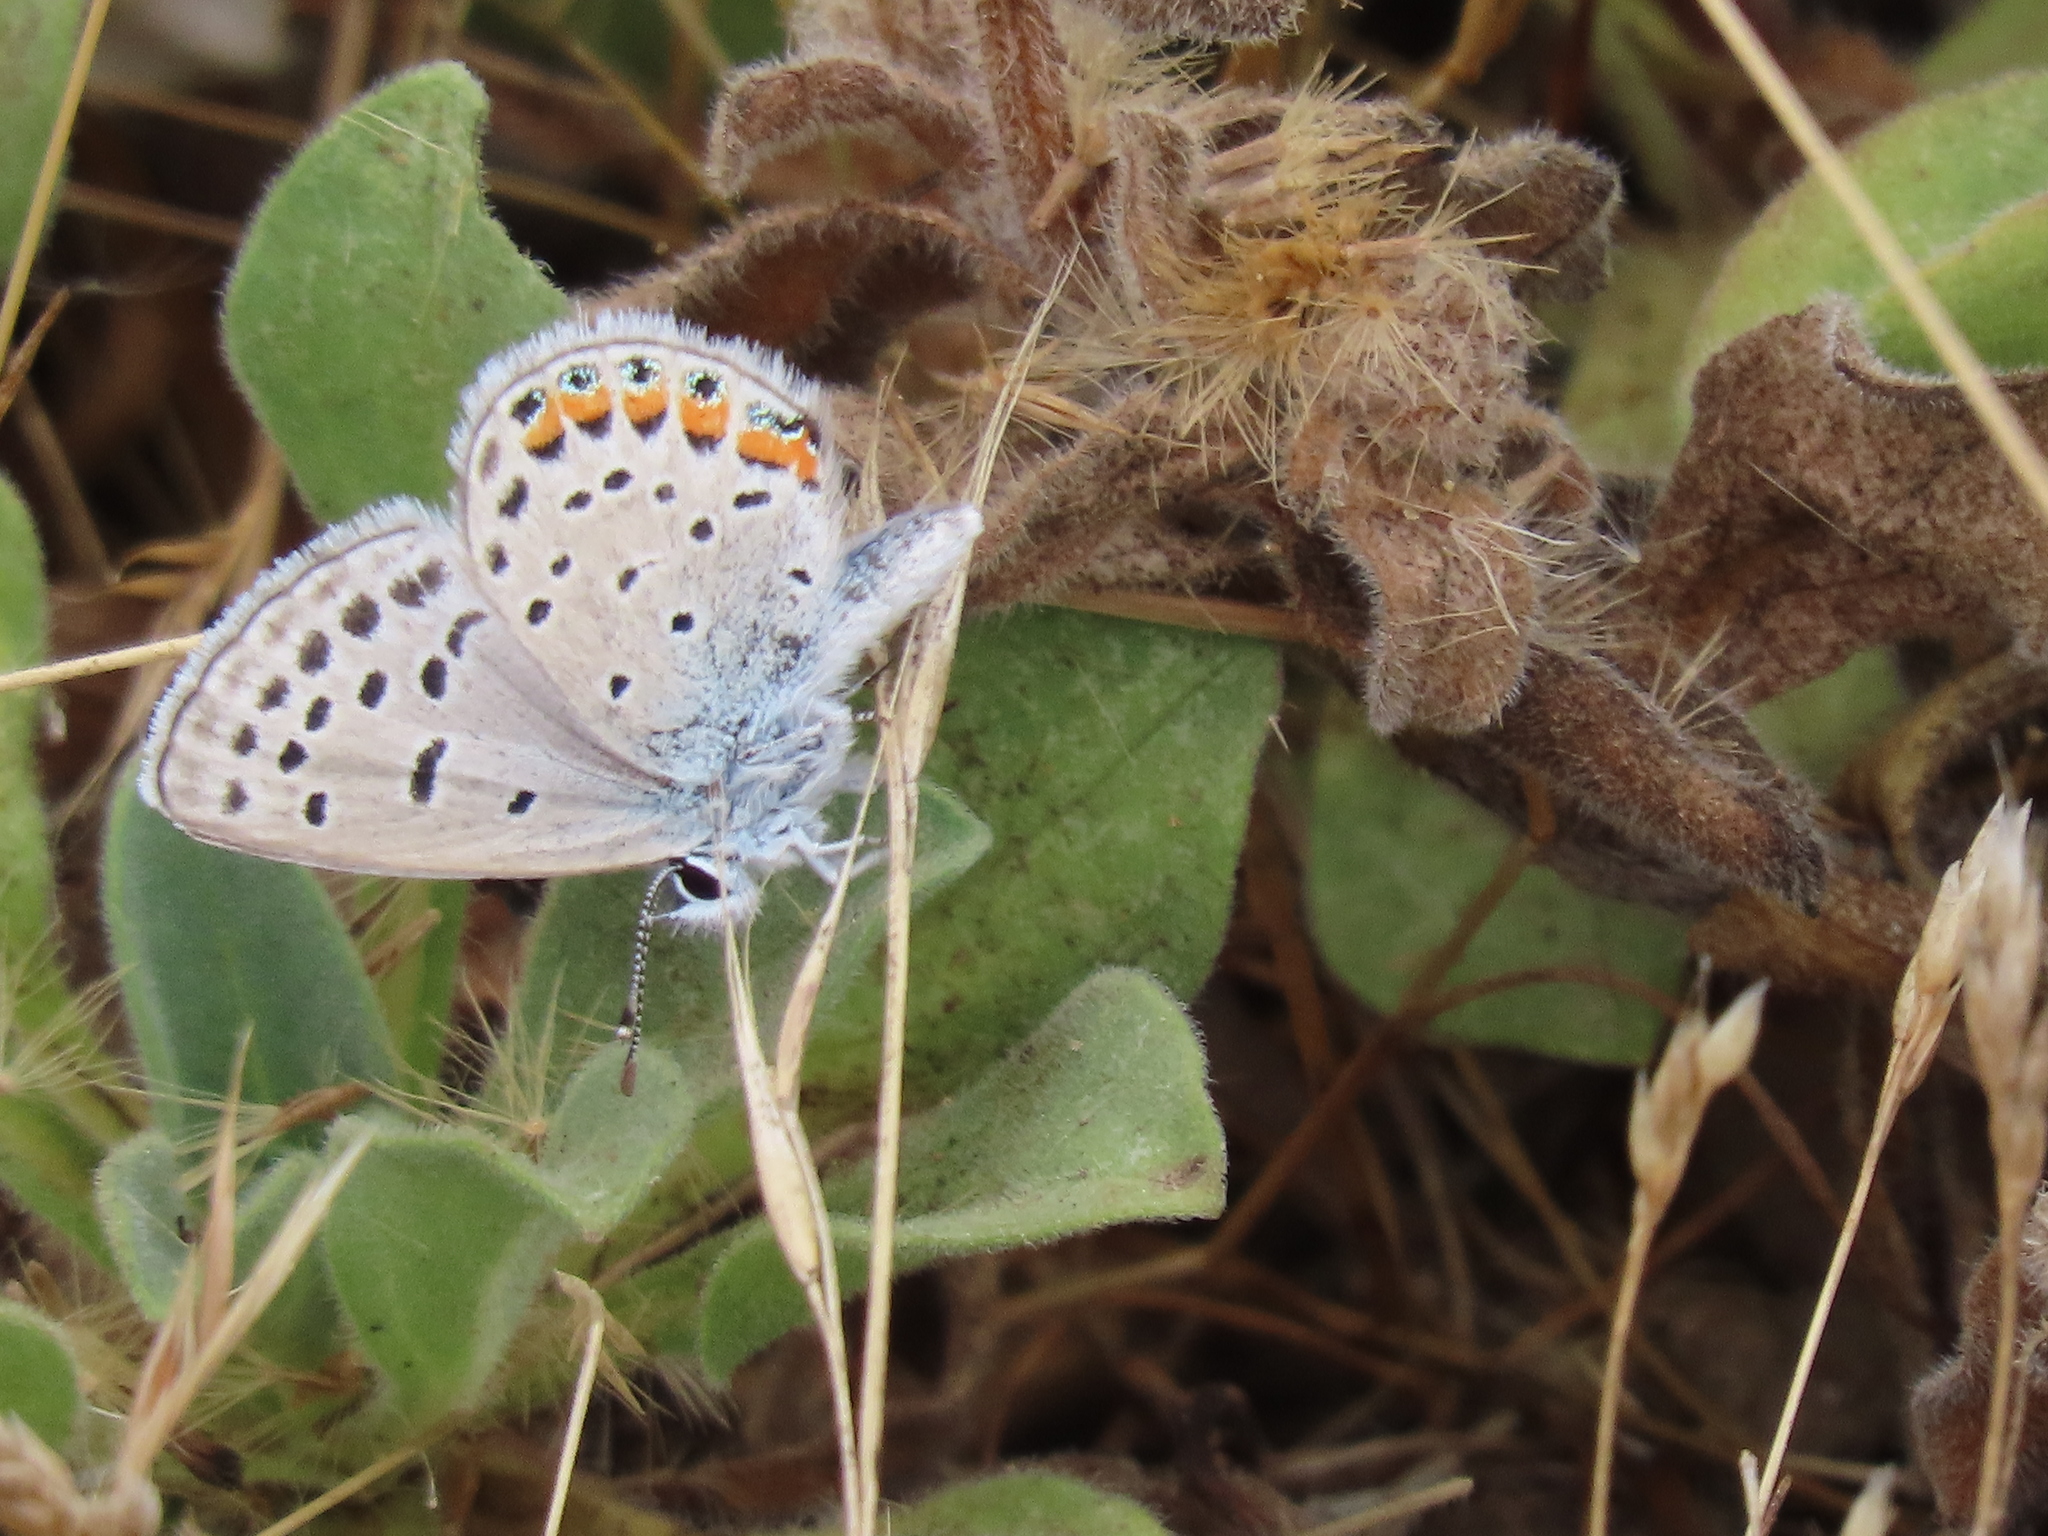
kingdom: Animalia
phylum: Arthropoda
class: Insecta
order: Lepidoptera
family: Lycaenidae
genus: Icaricia
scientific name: Icaricia acmon
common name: Acmon blue
